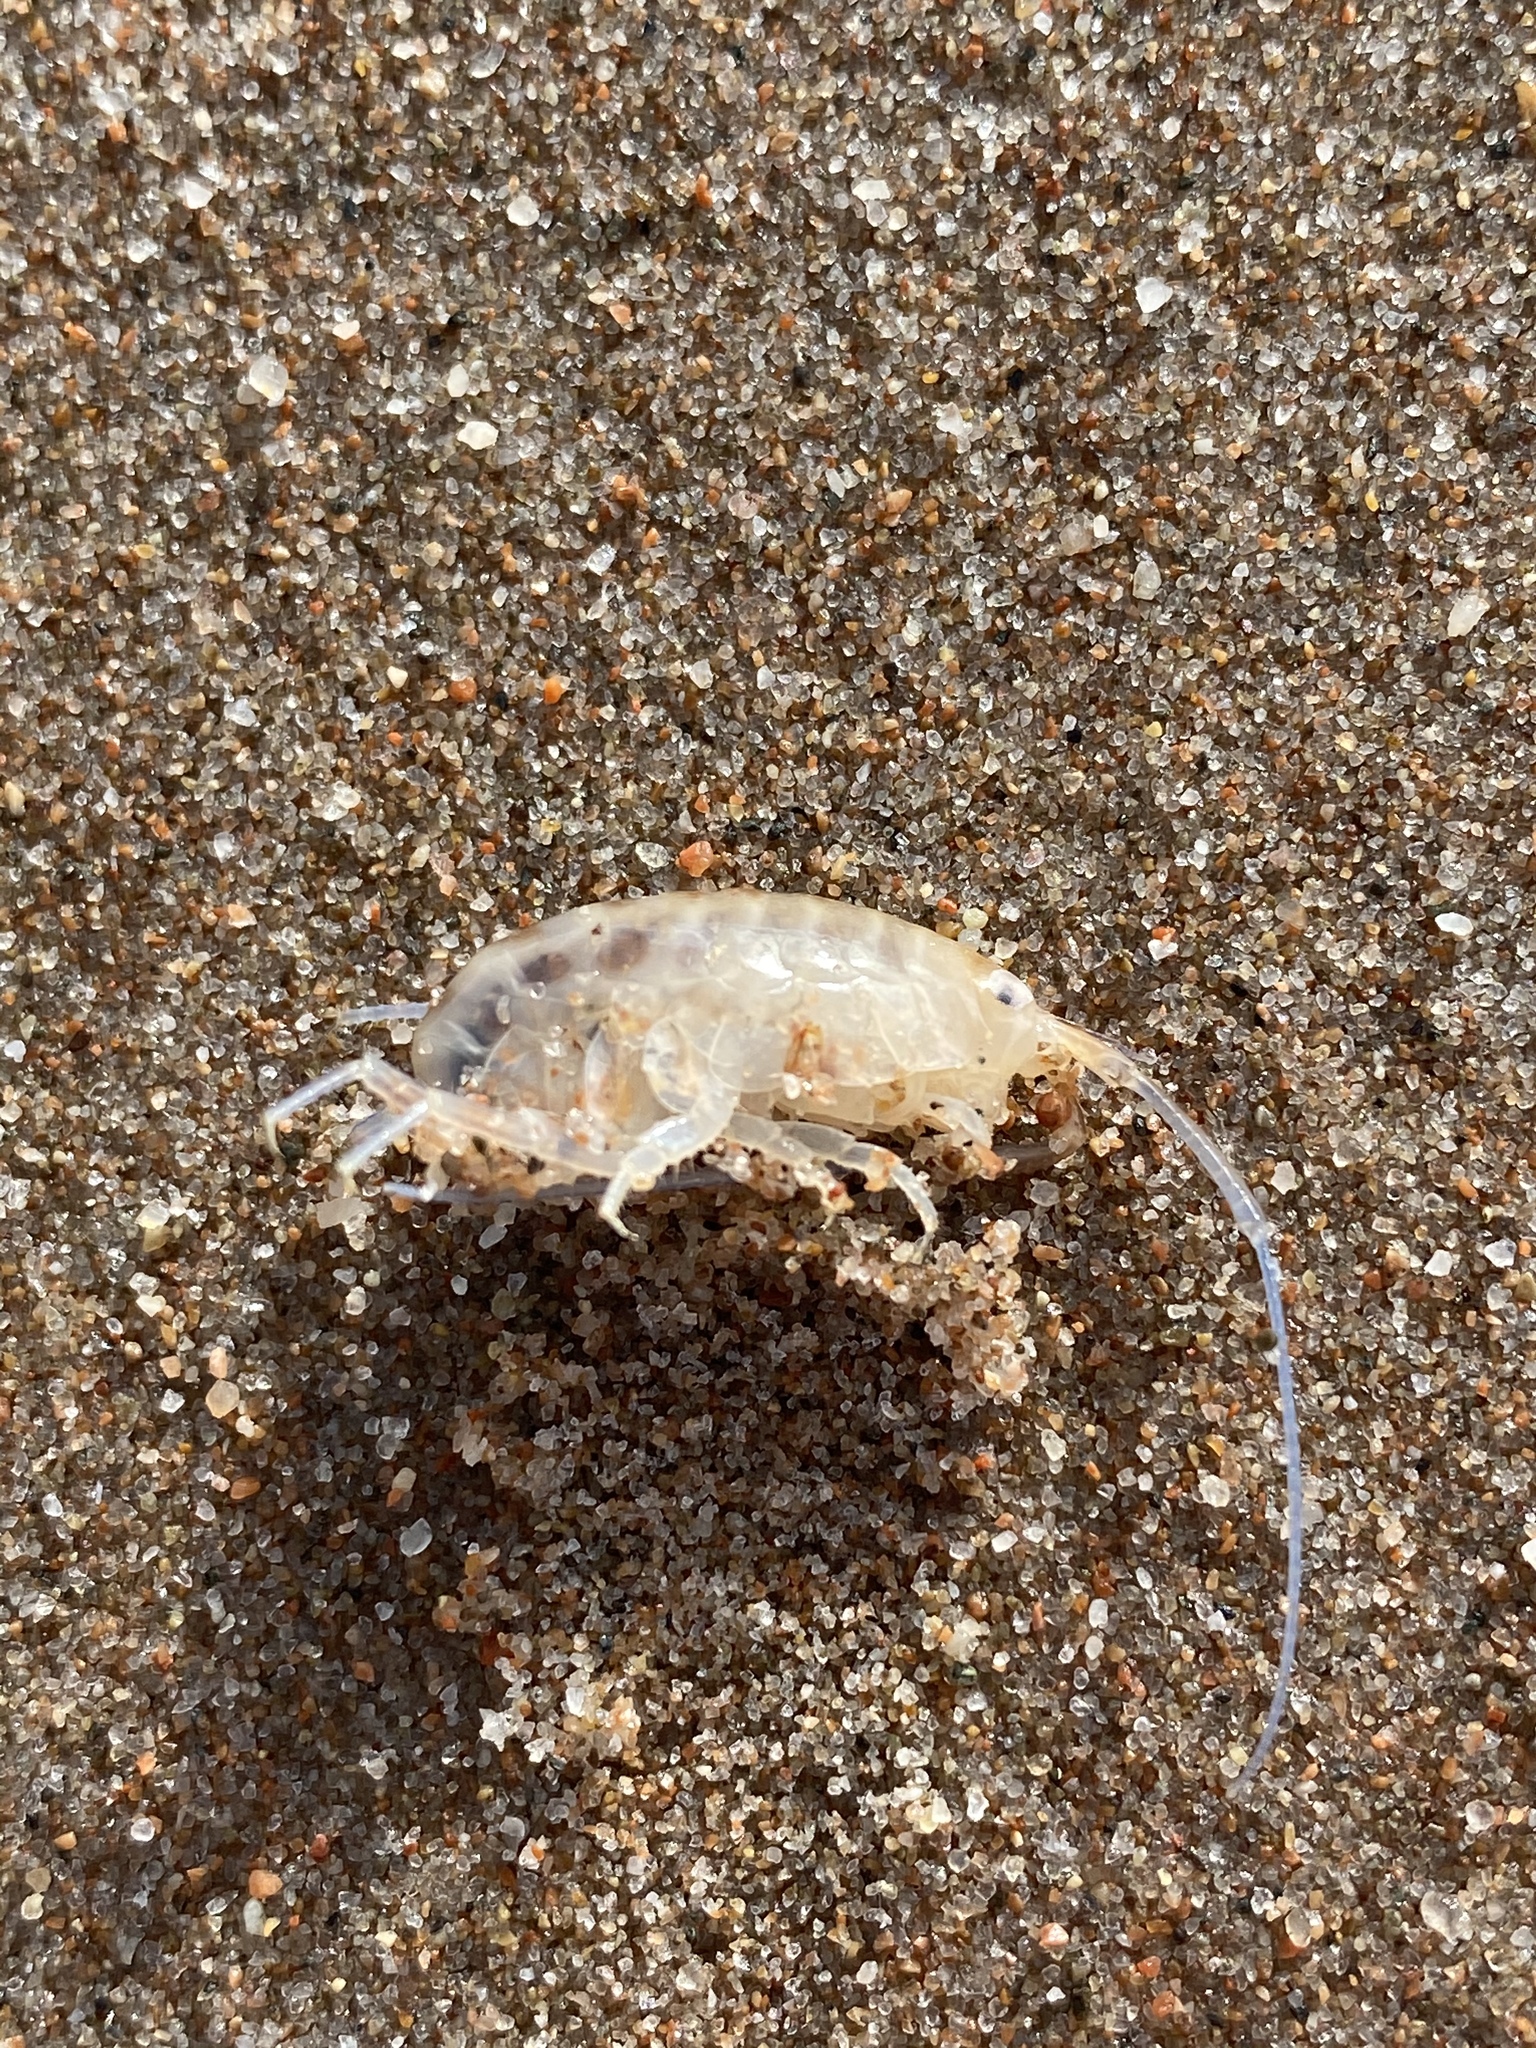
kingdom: Animalia
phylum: Arthropoda
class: Malacostraca
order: Amphipoda
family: Talitridae
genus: Americorchestia
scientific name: Americorchestia longicornis
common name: Common atlantic sandhopper
